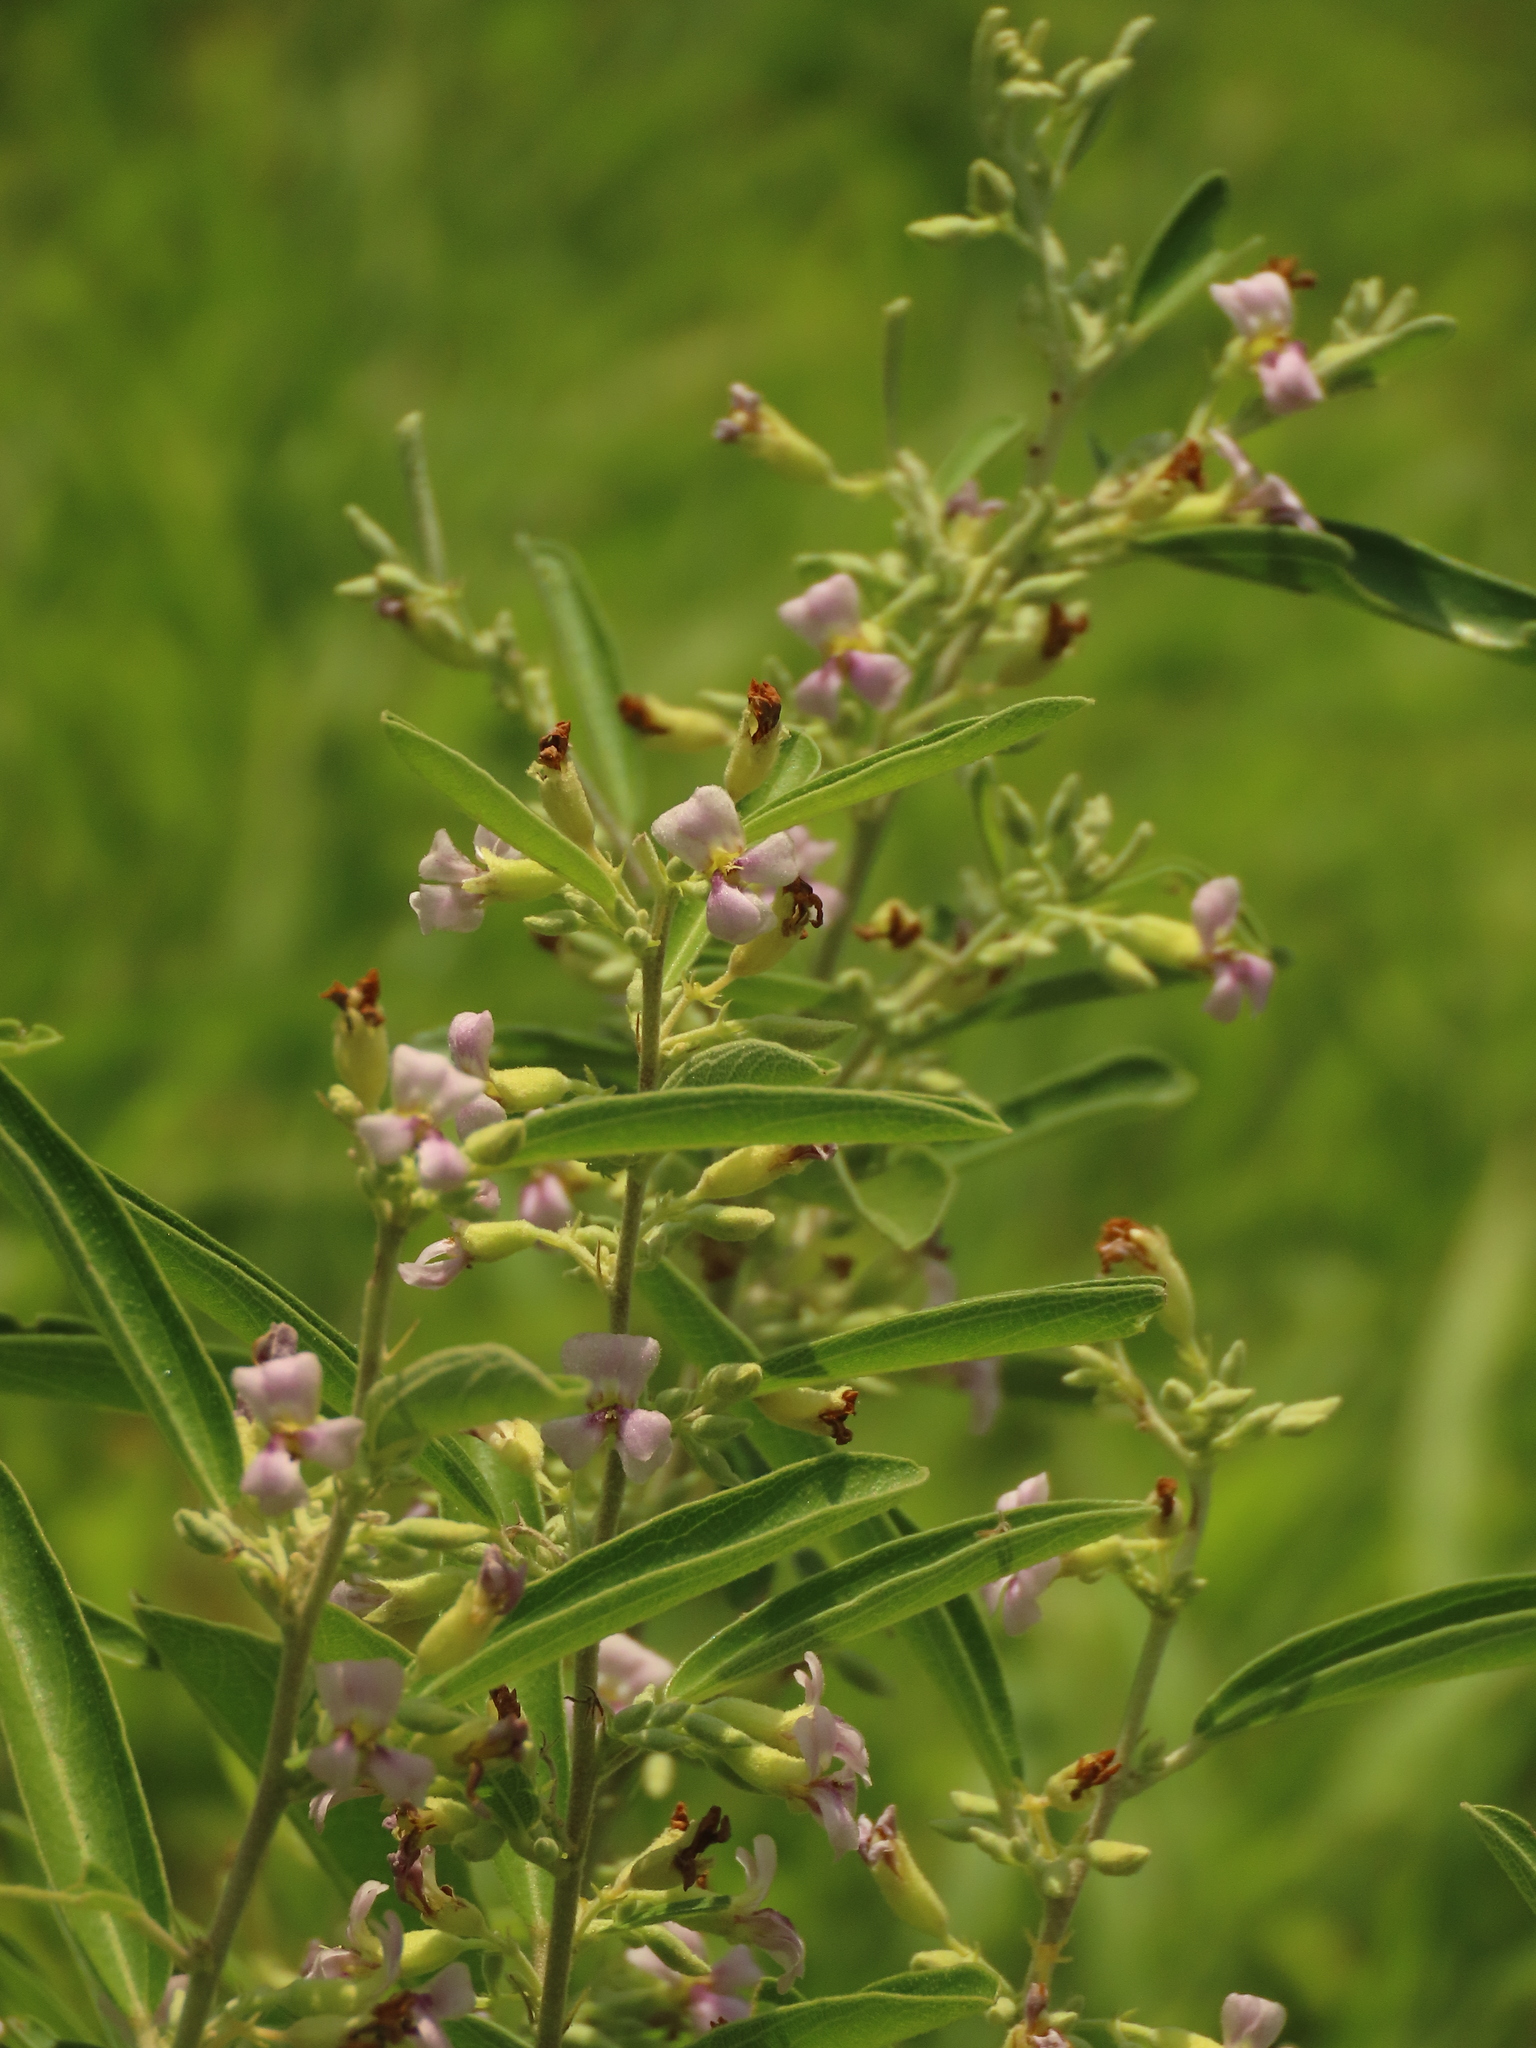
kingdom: Plantae
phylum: Tracheophyta
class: Magnoliopsida
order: Malvales
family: Malvaceae
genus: Helicteres
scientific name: Helicteres angustifolia
